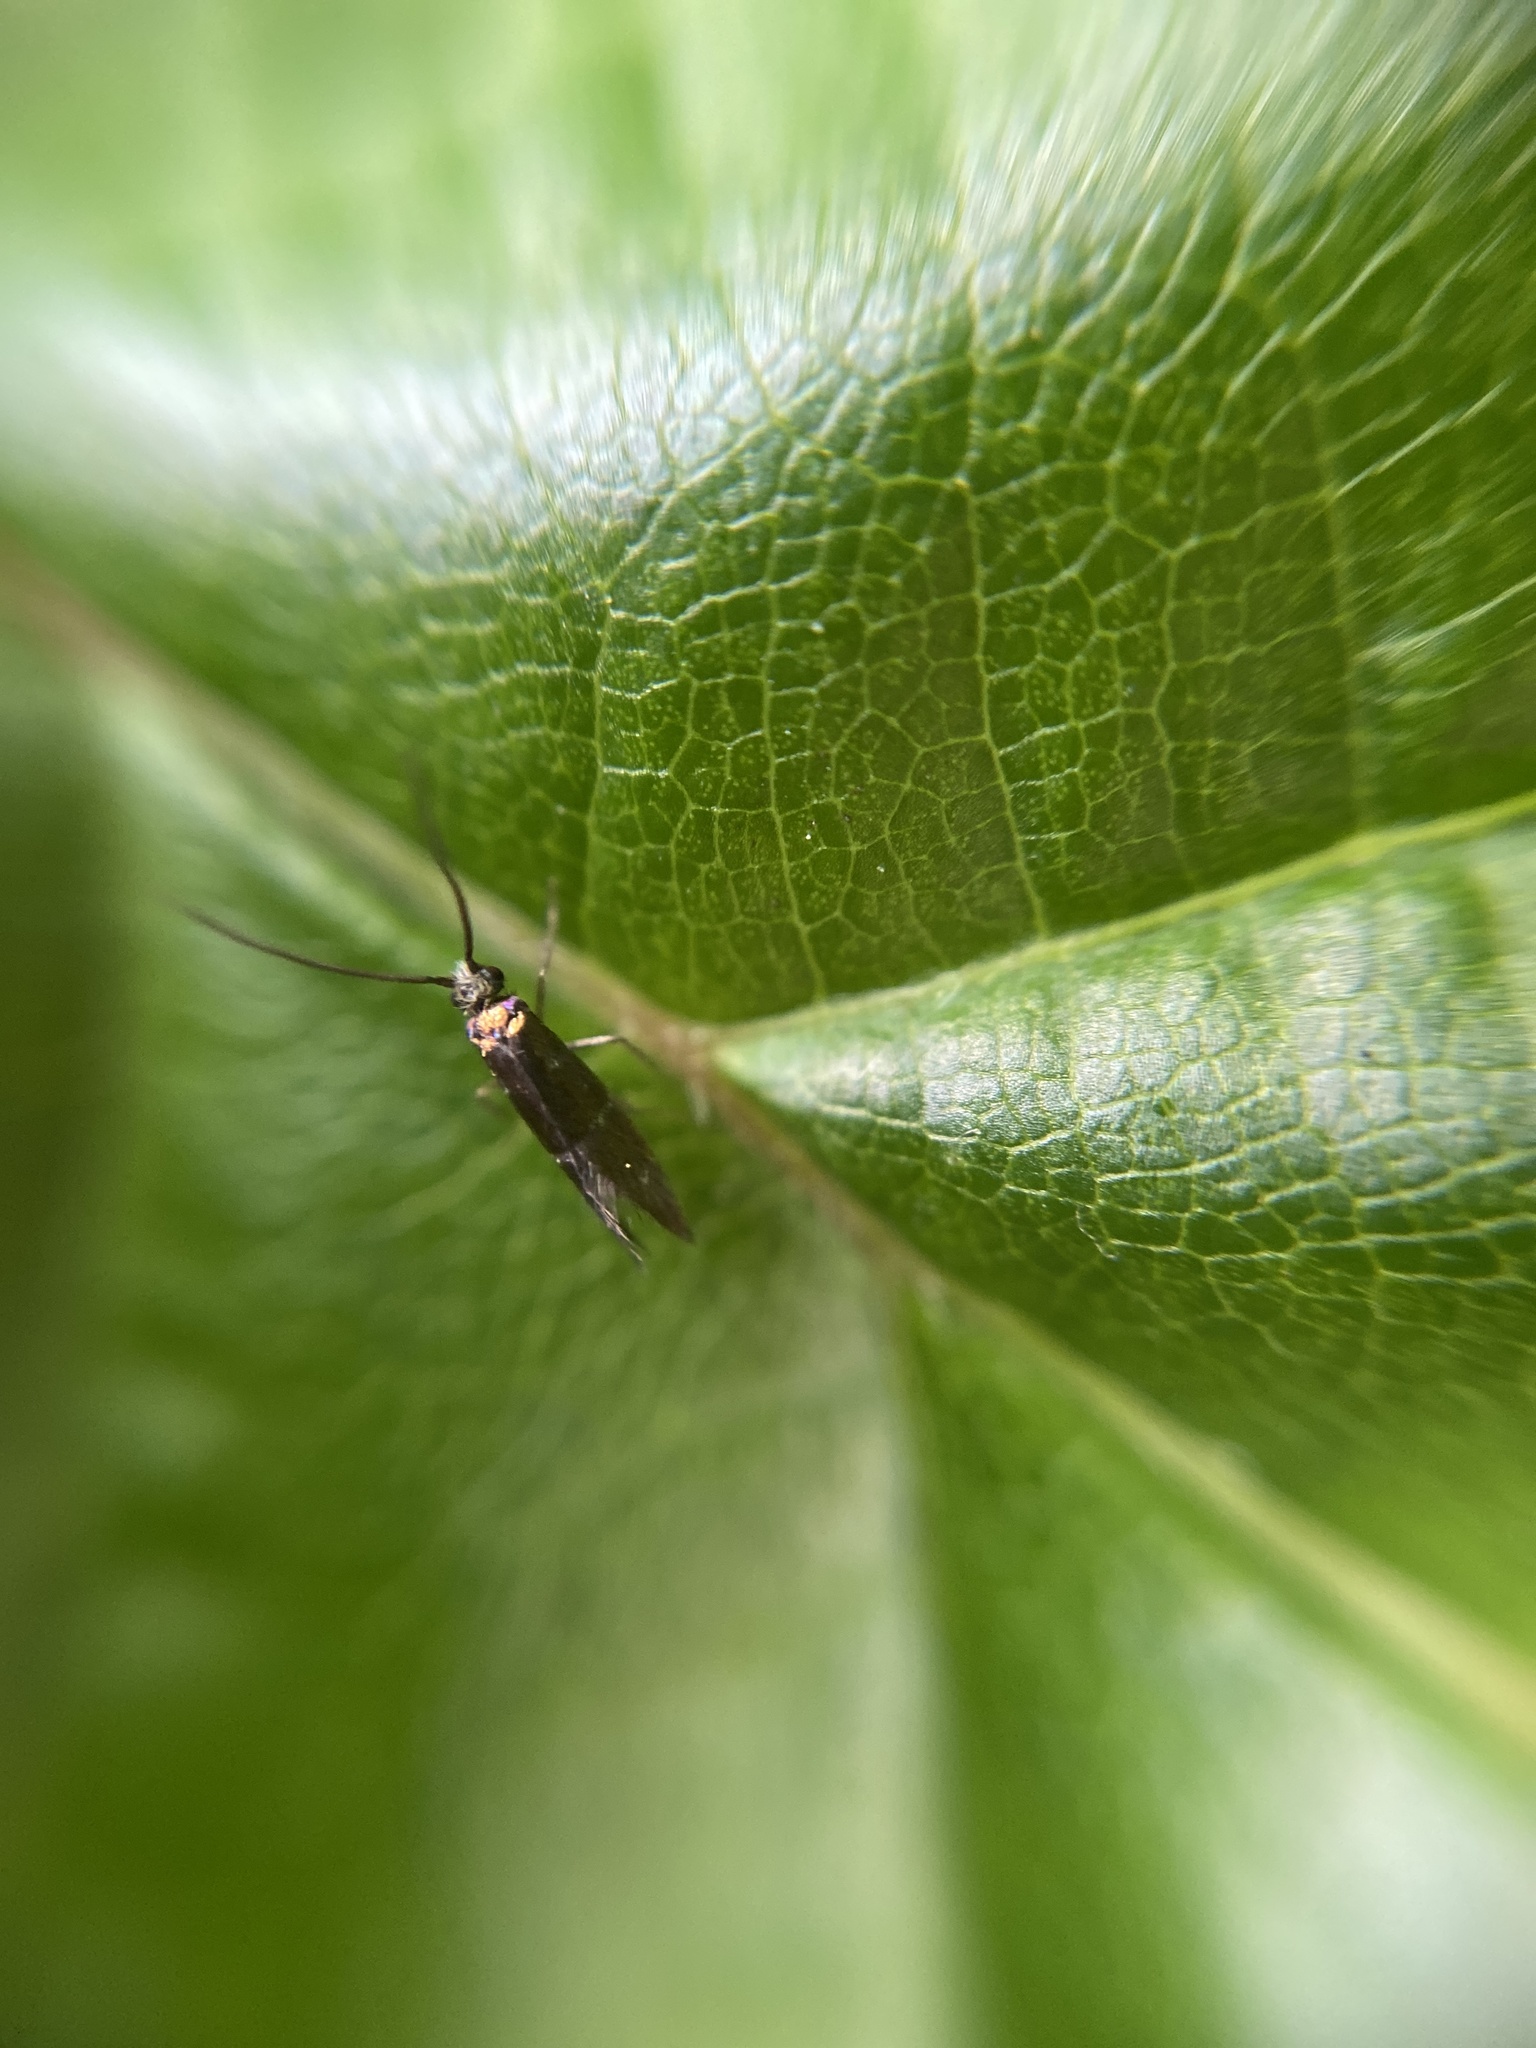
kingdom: Animalia
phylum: Arthropoda
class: Insecta
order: Lepidoptera
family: Micropterigidae
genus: Micropterix
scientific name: Micropterix aruncella
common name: White-barred gold
